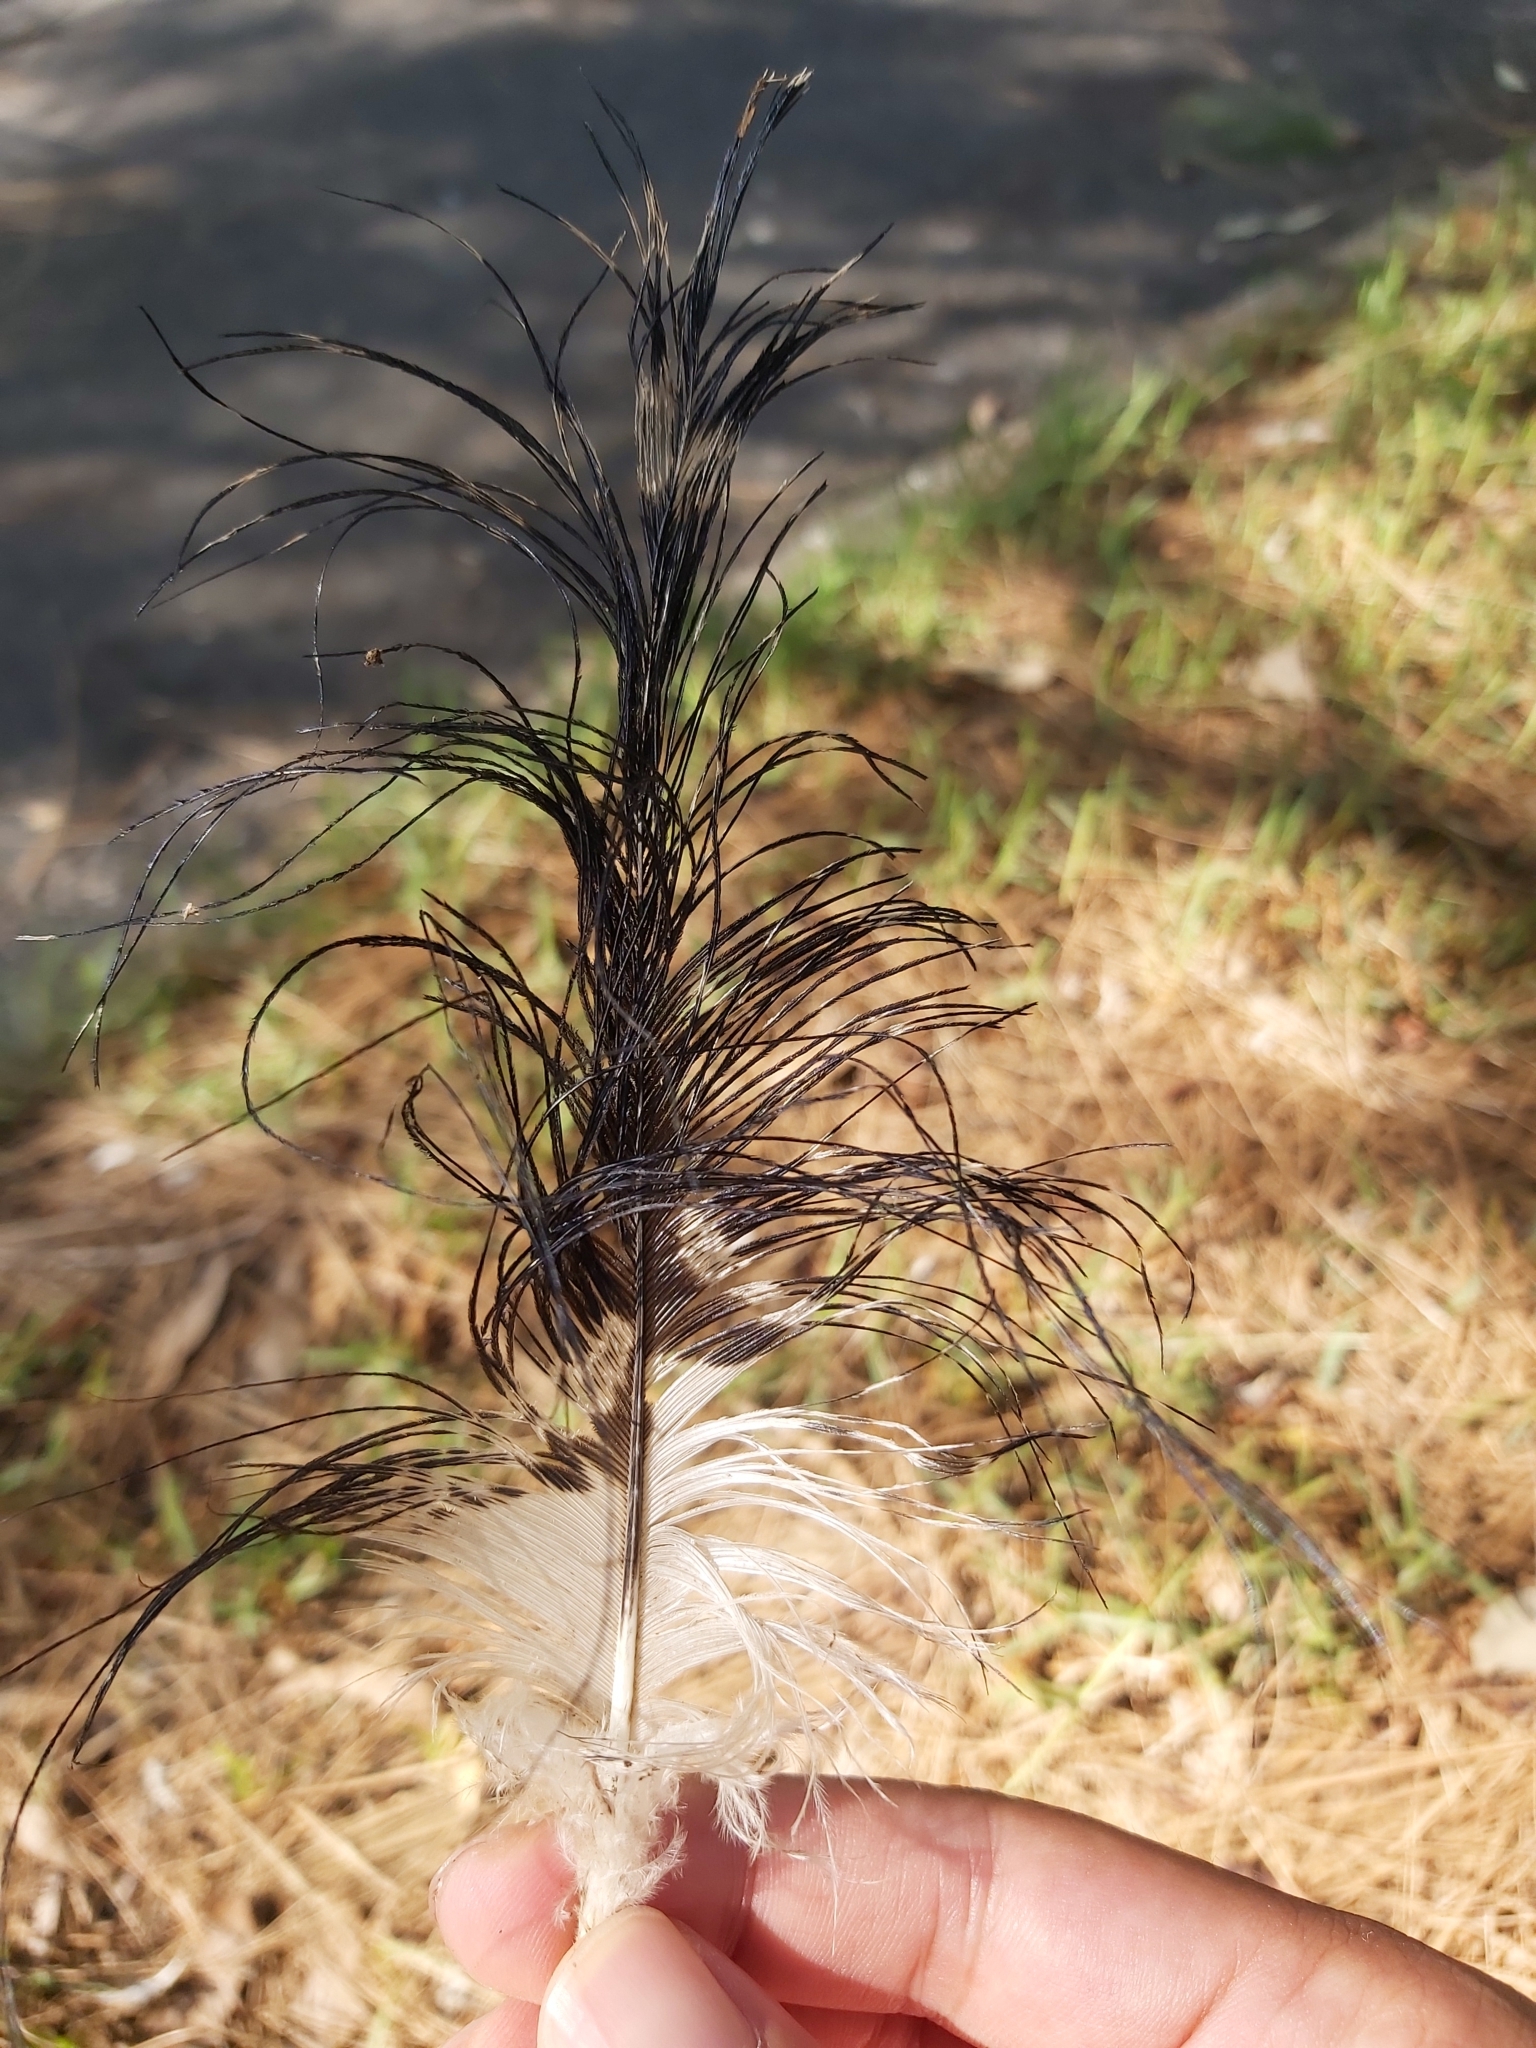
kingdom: Animalia
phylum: Chordata
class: Aves
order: Pelecaniformes
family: Threskiornithidae
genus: Threskiornis
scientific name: Threskiornis molucca
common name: Australian white ibis
